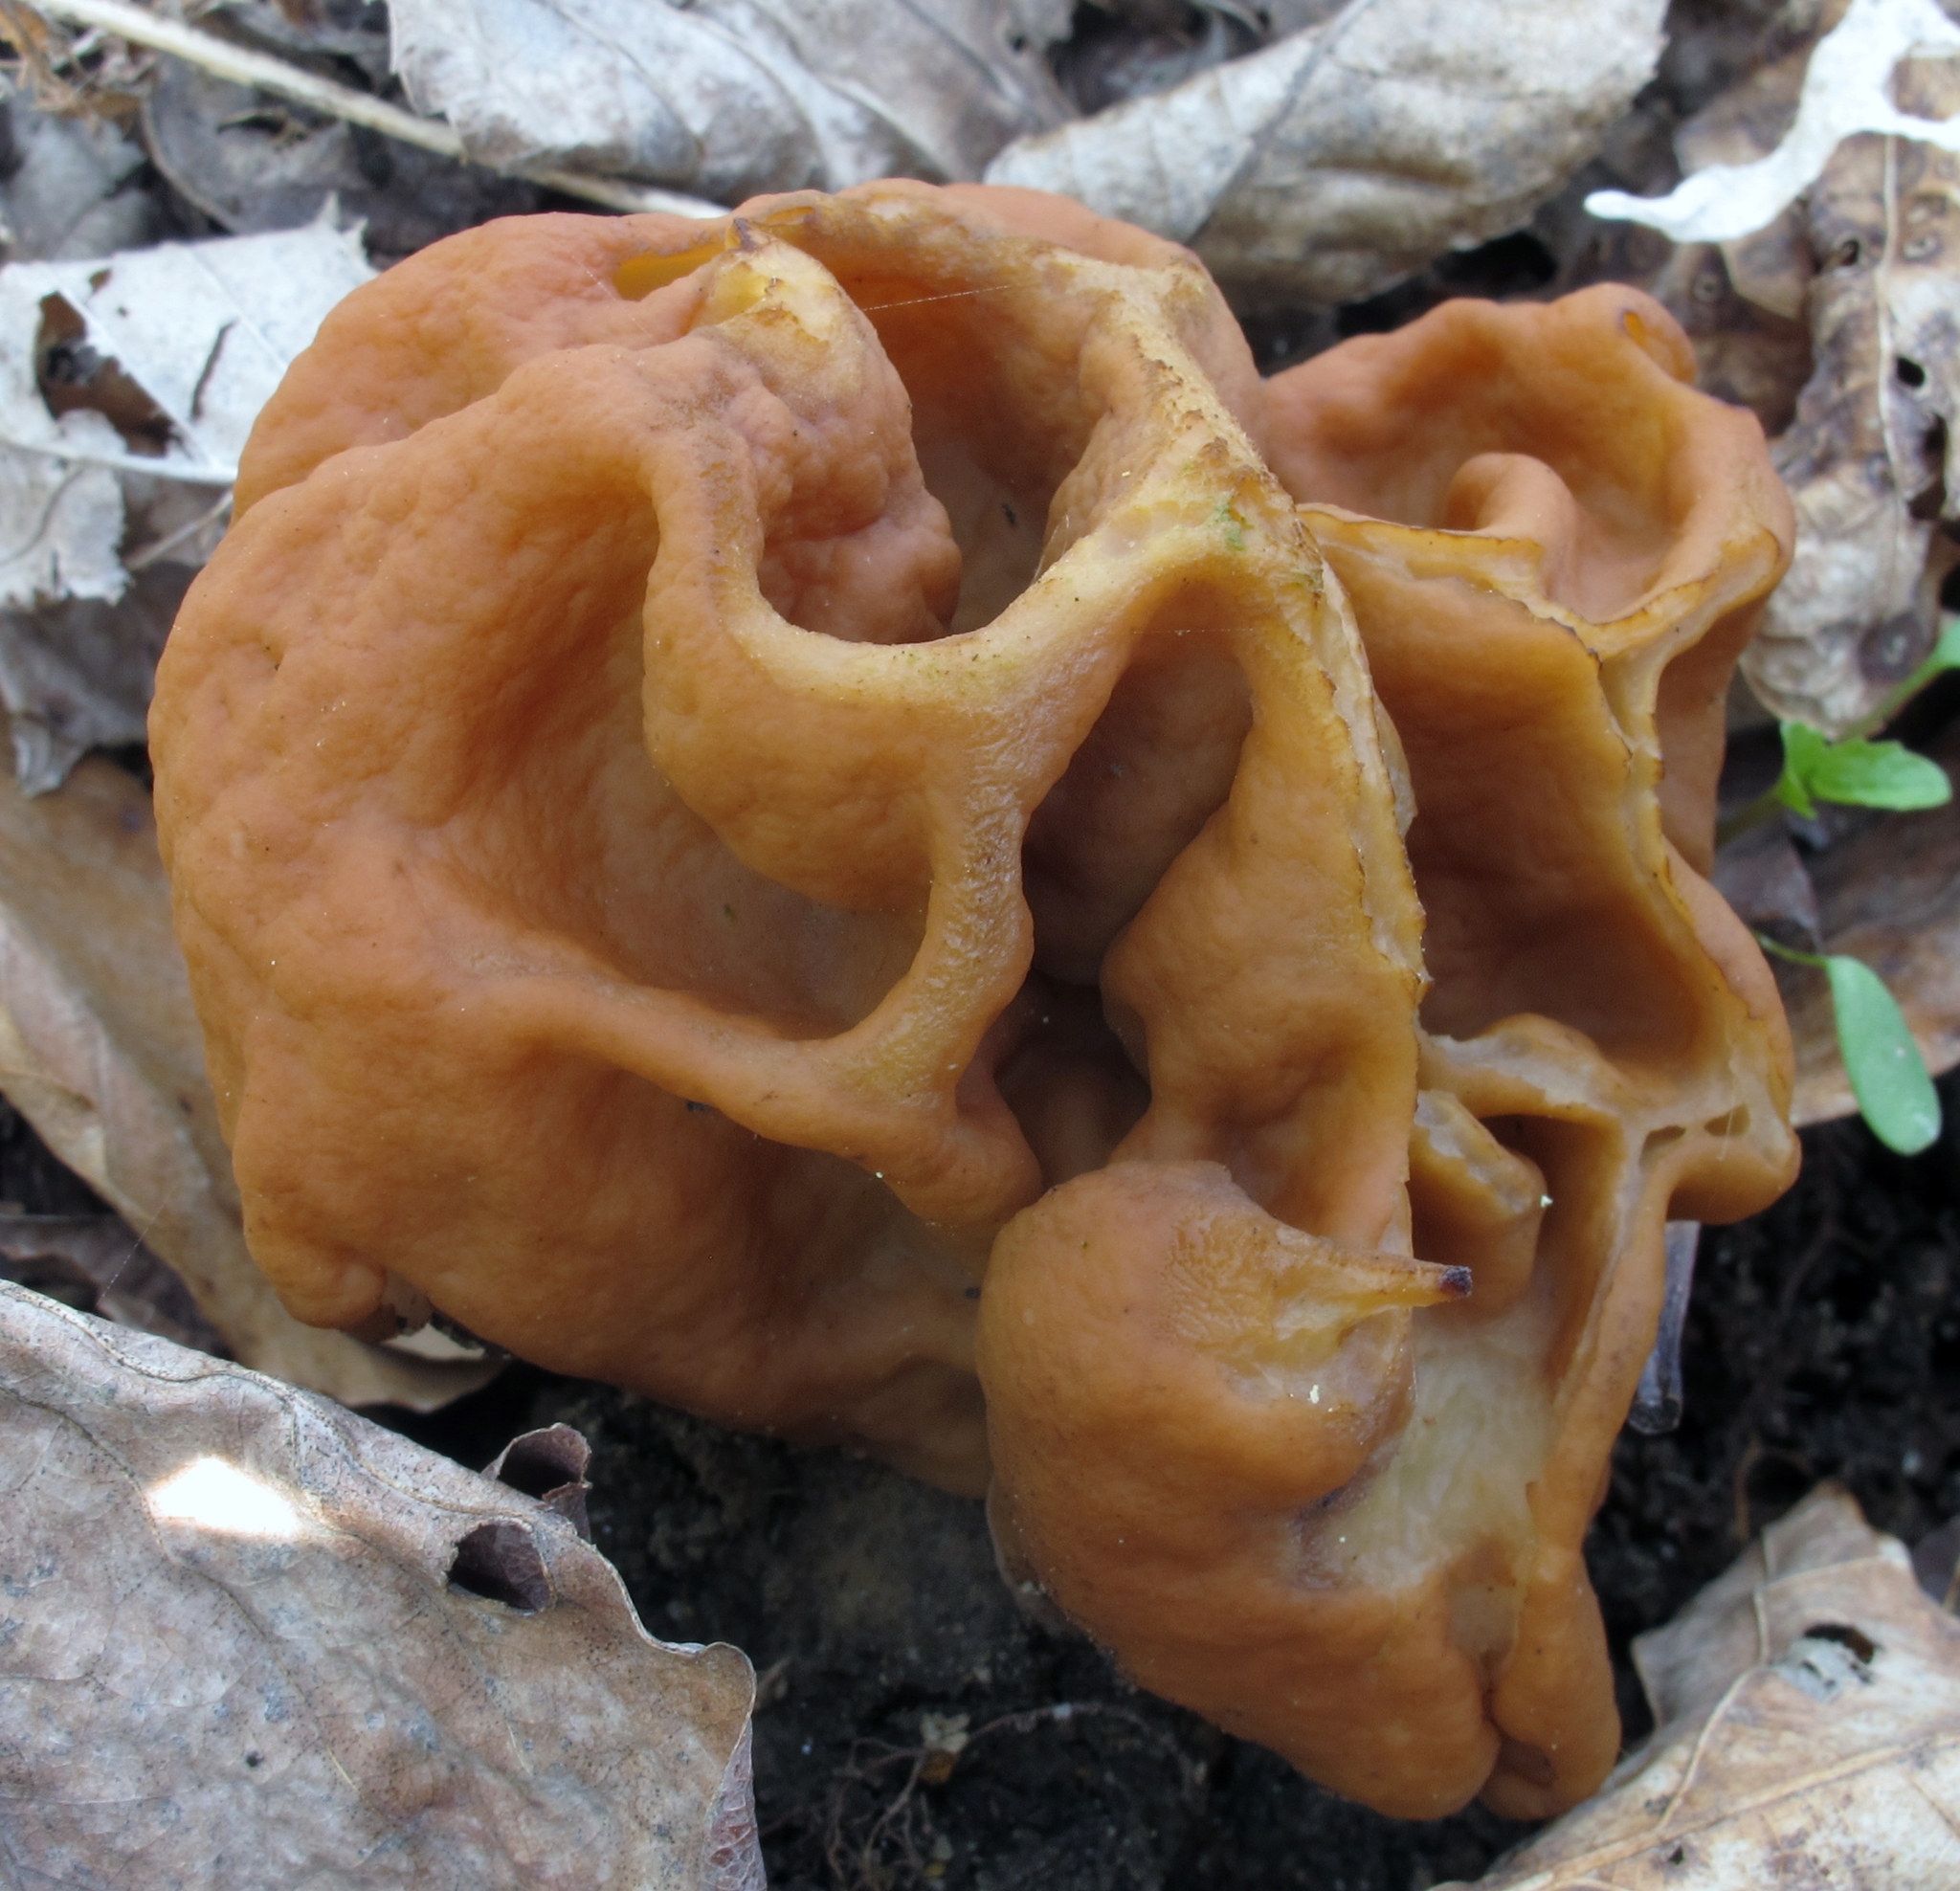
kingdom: Fungi
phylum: Ascomycota
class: Pezizomycetes
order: Pezizales
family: Discinaceae
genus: Gyromitra
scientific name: Gyromitra korfii
